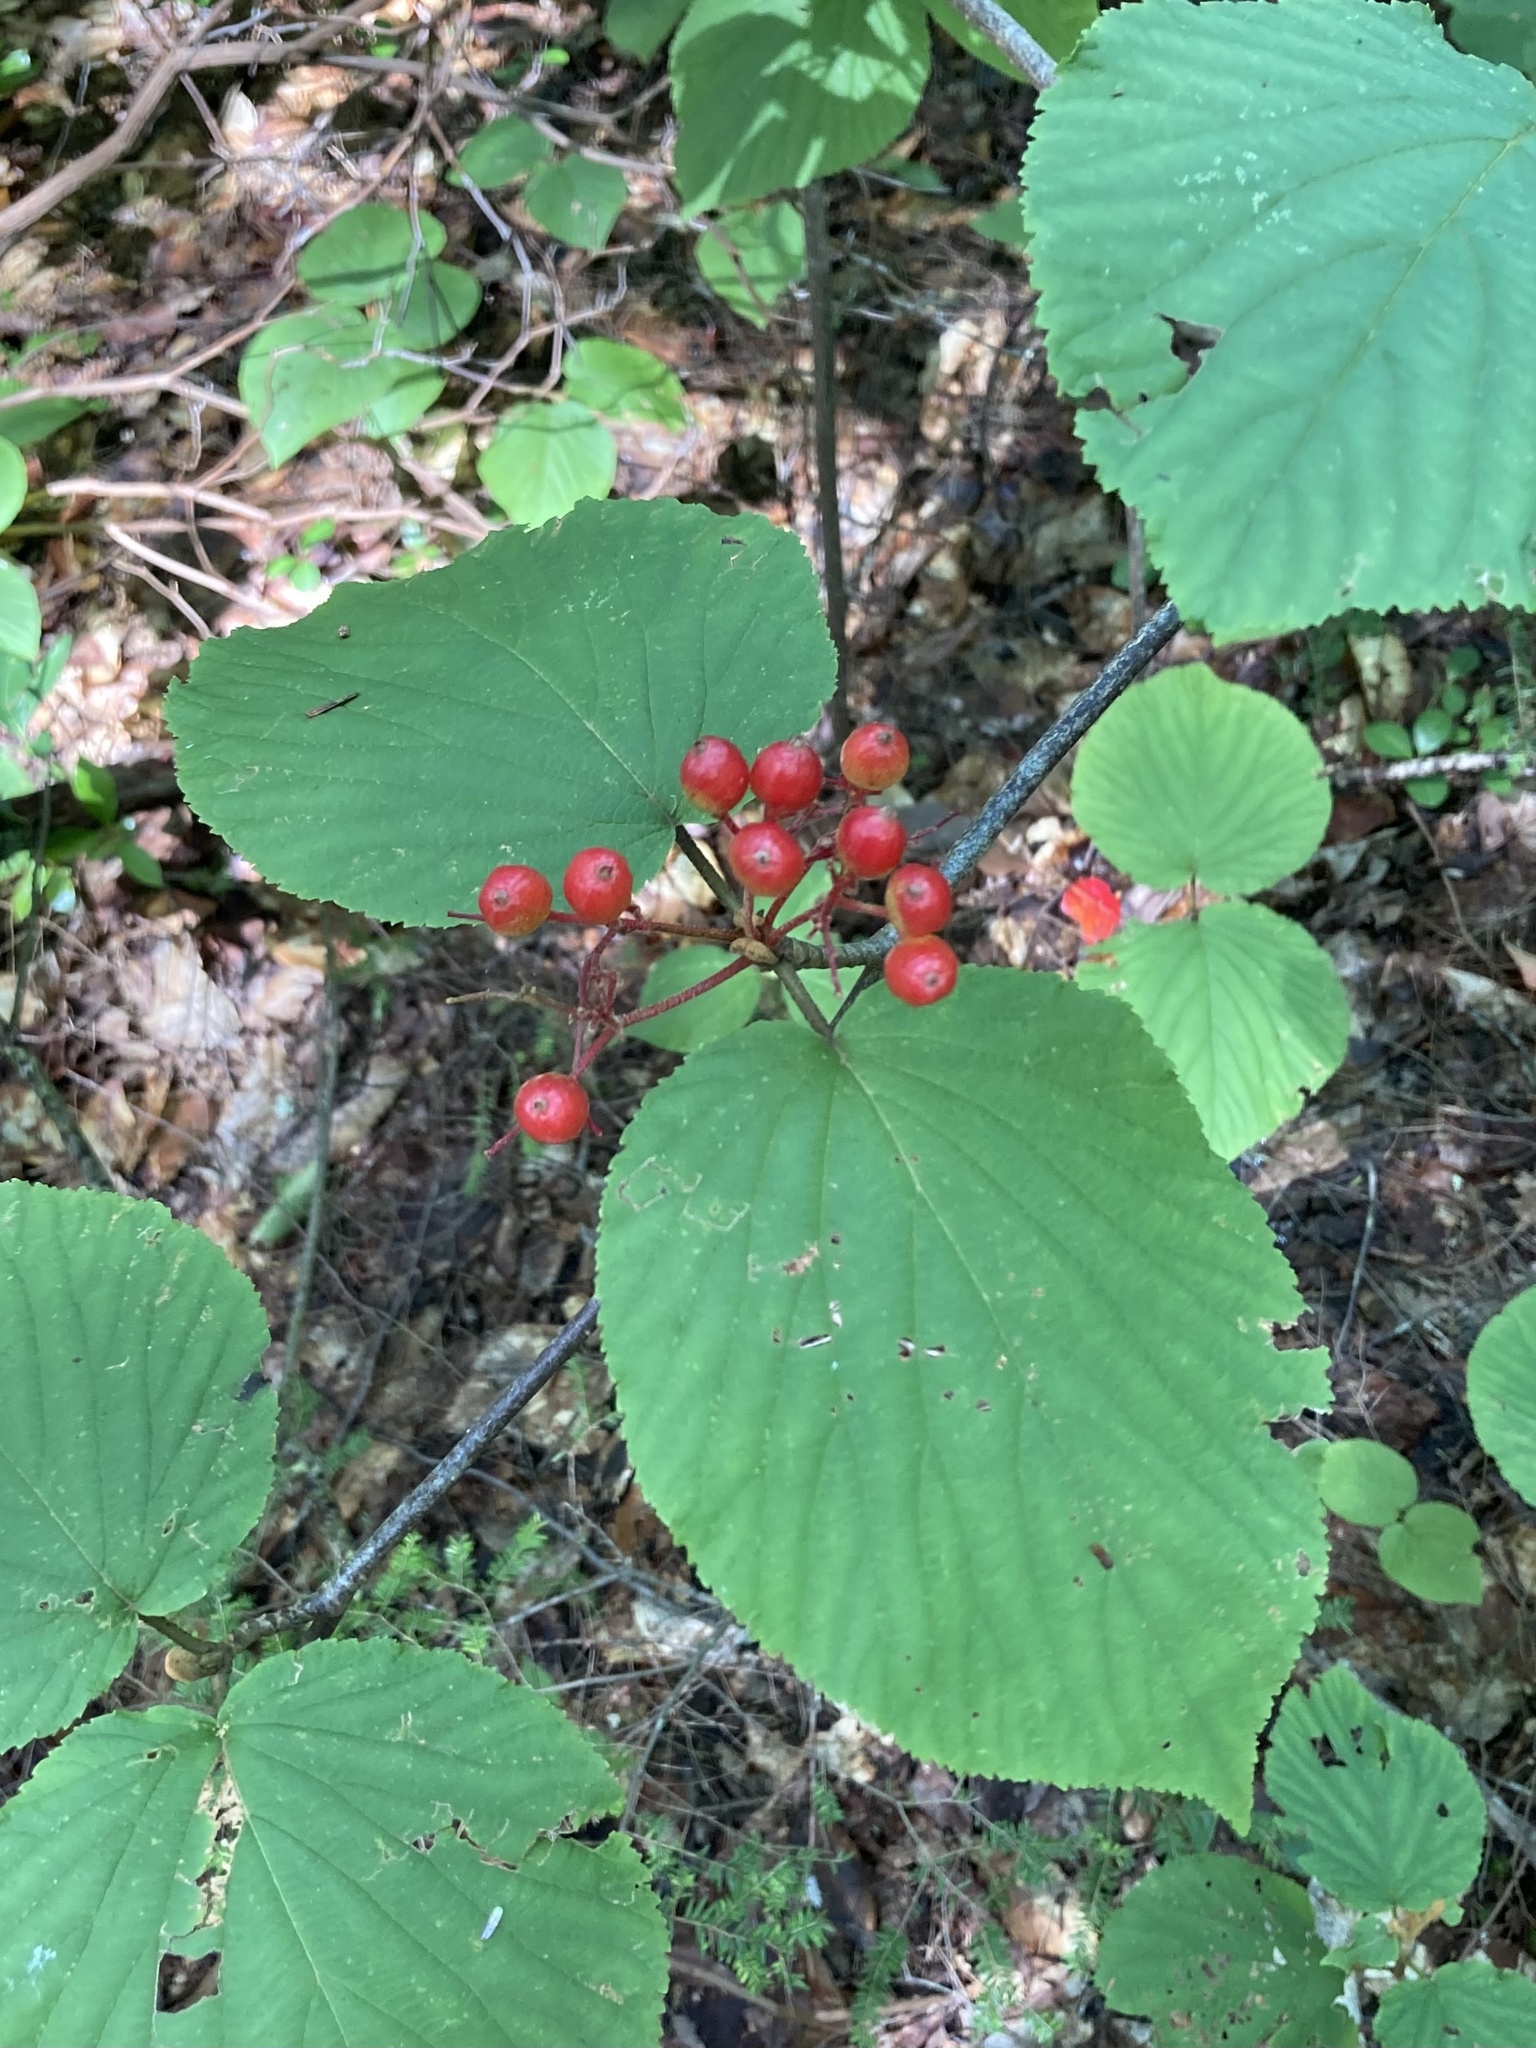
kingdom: Plantae
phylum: Tracheophyta
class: Magnoliopsida
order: Dipsacales
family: Viburnaceae
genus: Viburnum
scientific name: Viburnum lantanoides
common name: Hobblebush
